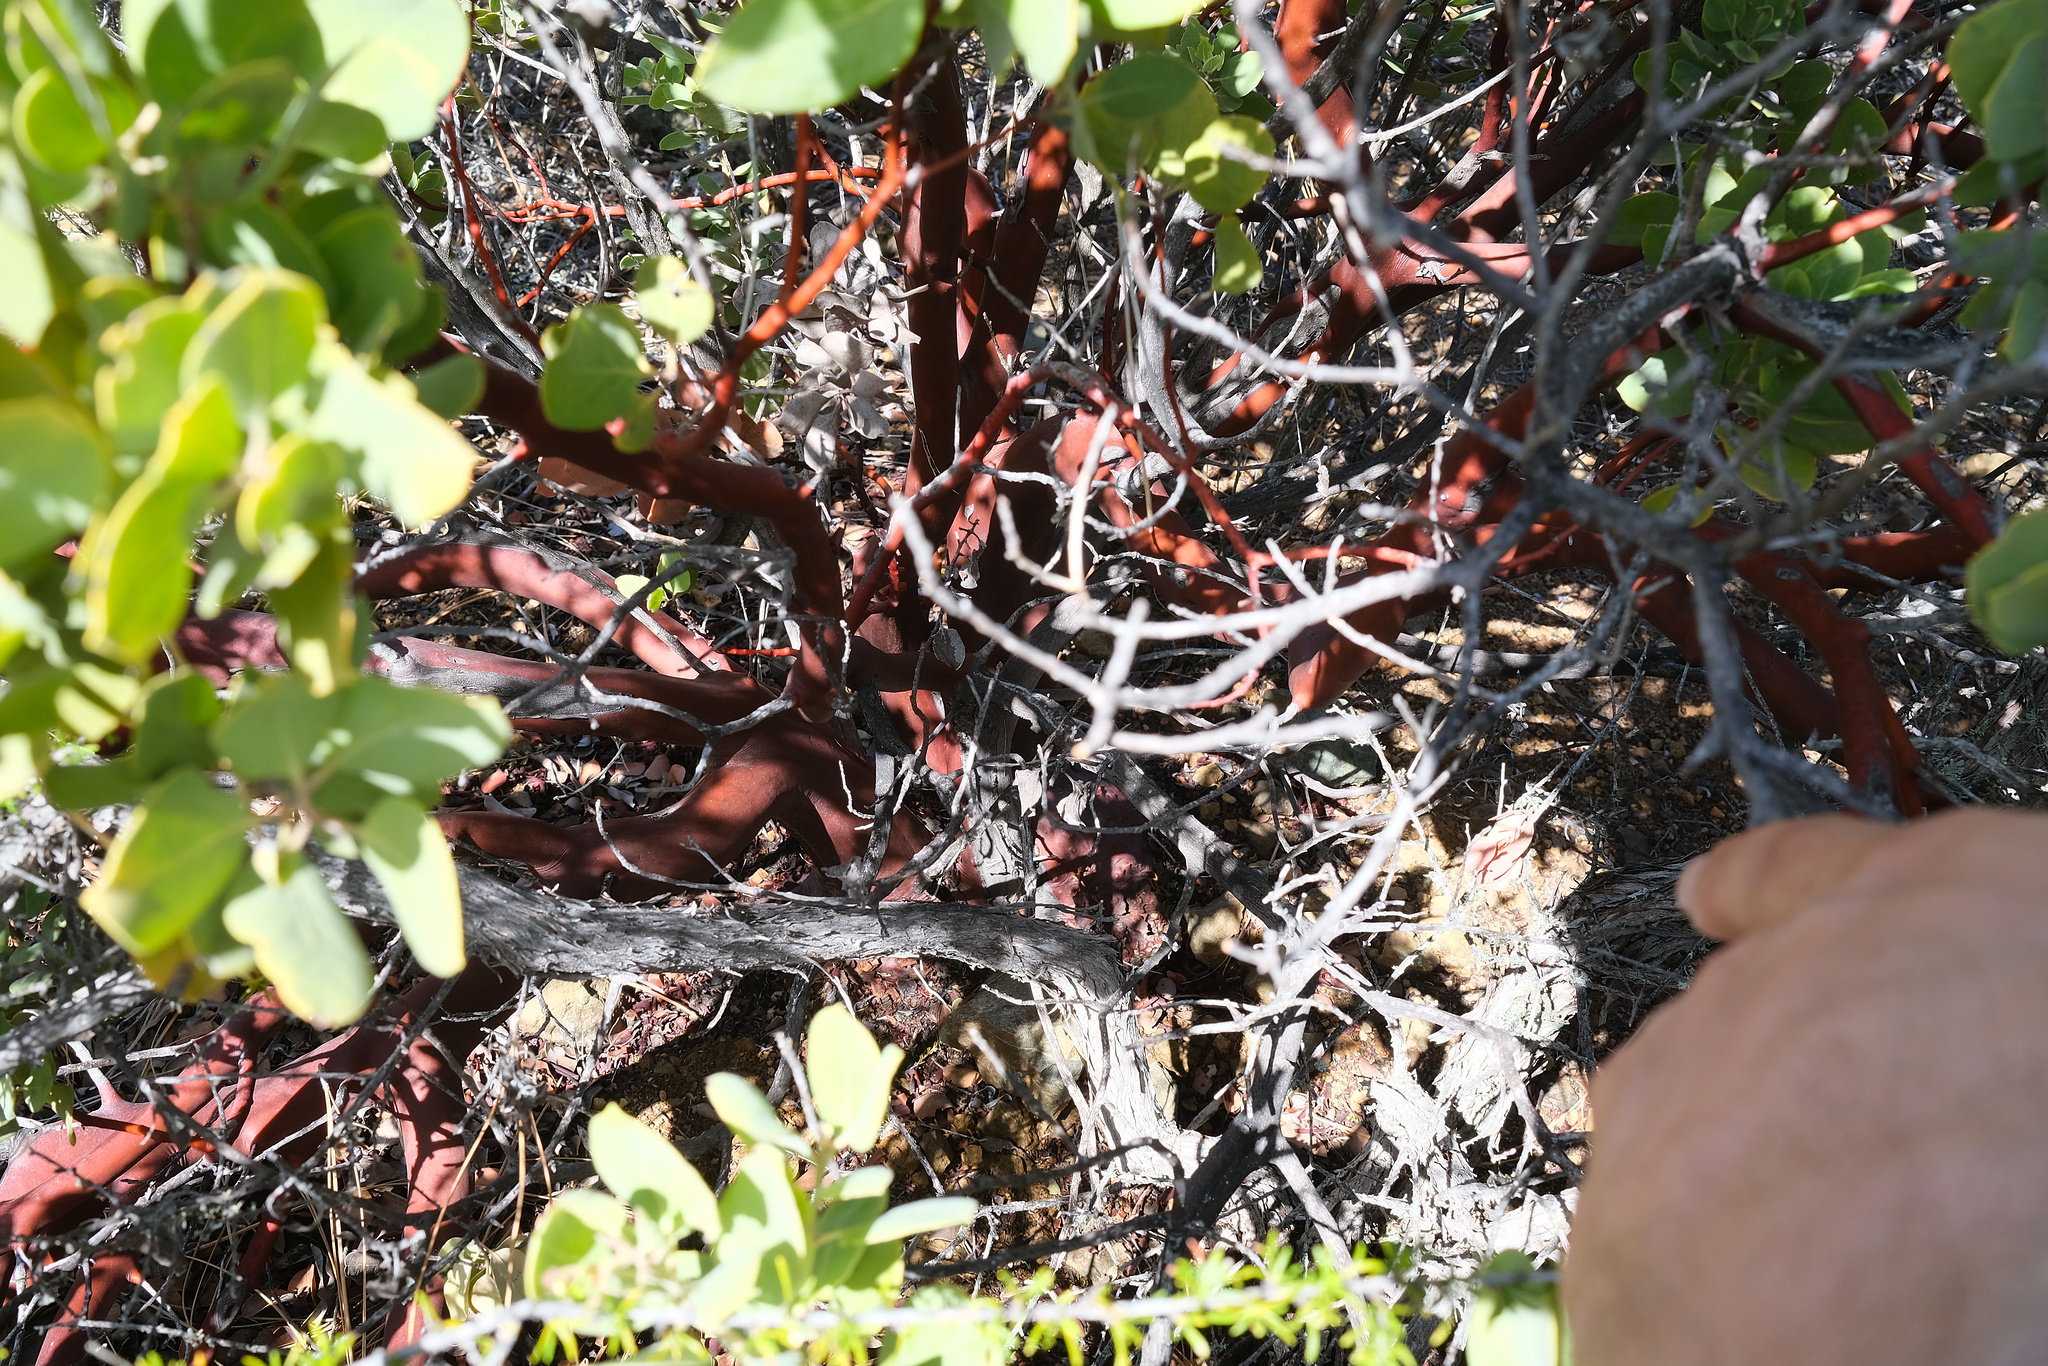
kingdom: Plantae
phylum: Tracheophyta
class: Magnoliopsida
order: Ericales
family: Ericaceae
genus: Arctostaphylos
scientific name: Arctostaphylos glandulosa
